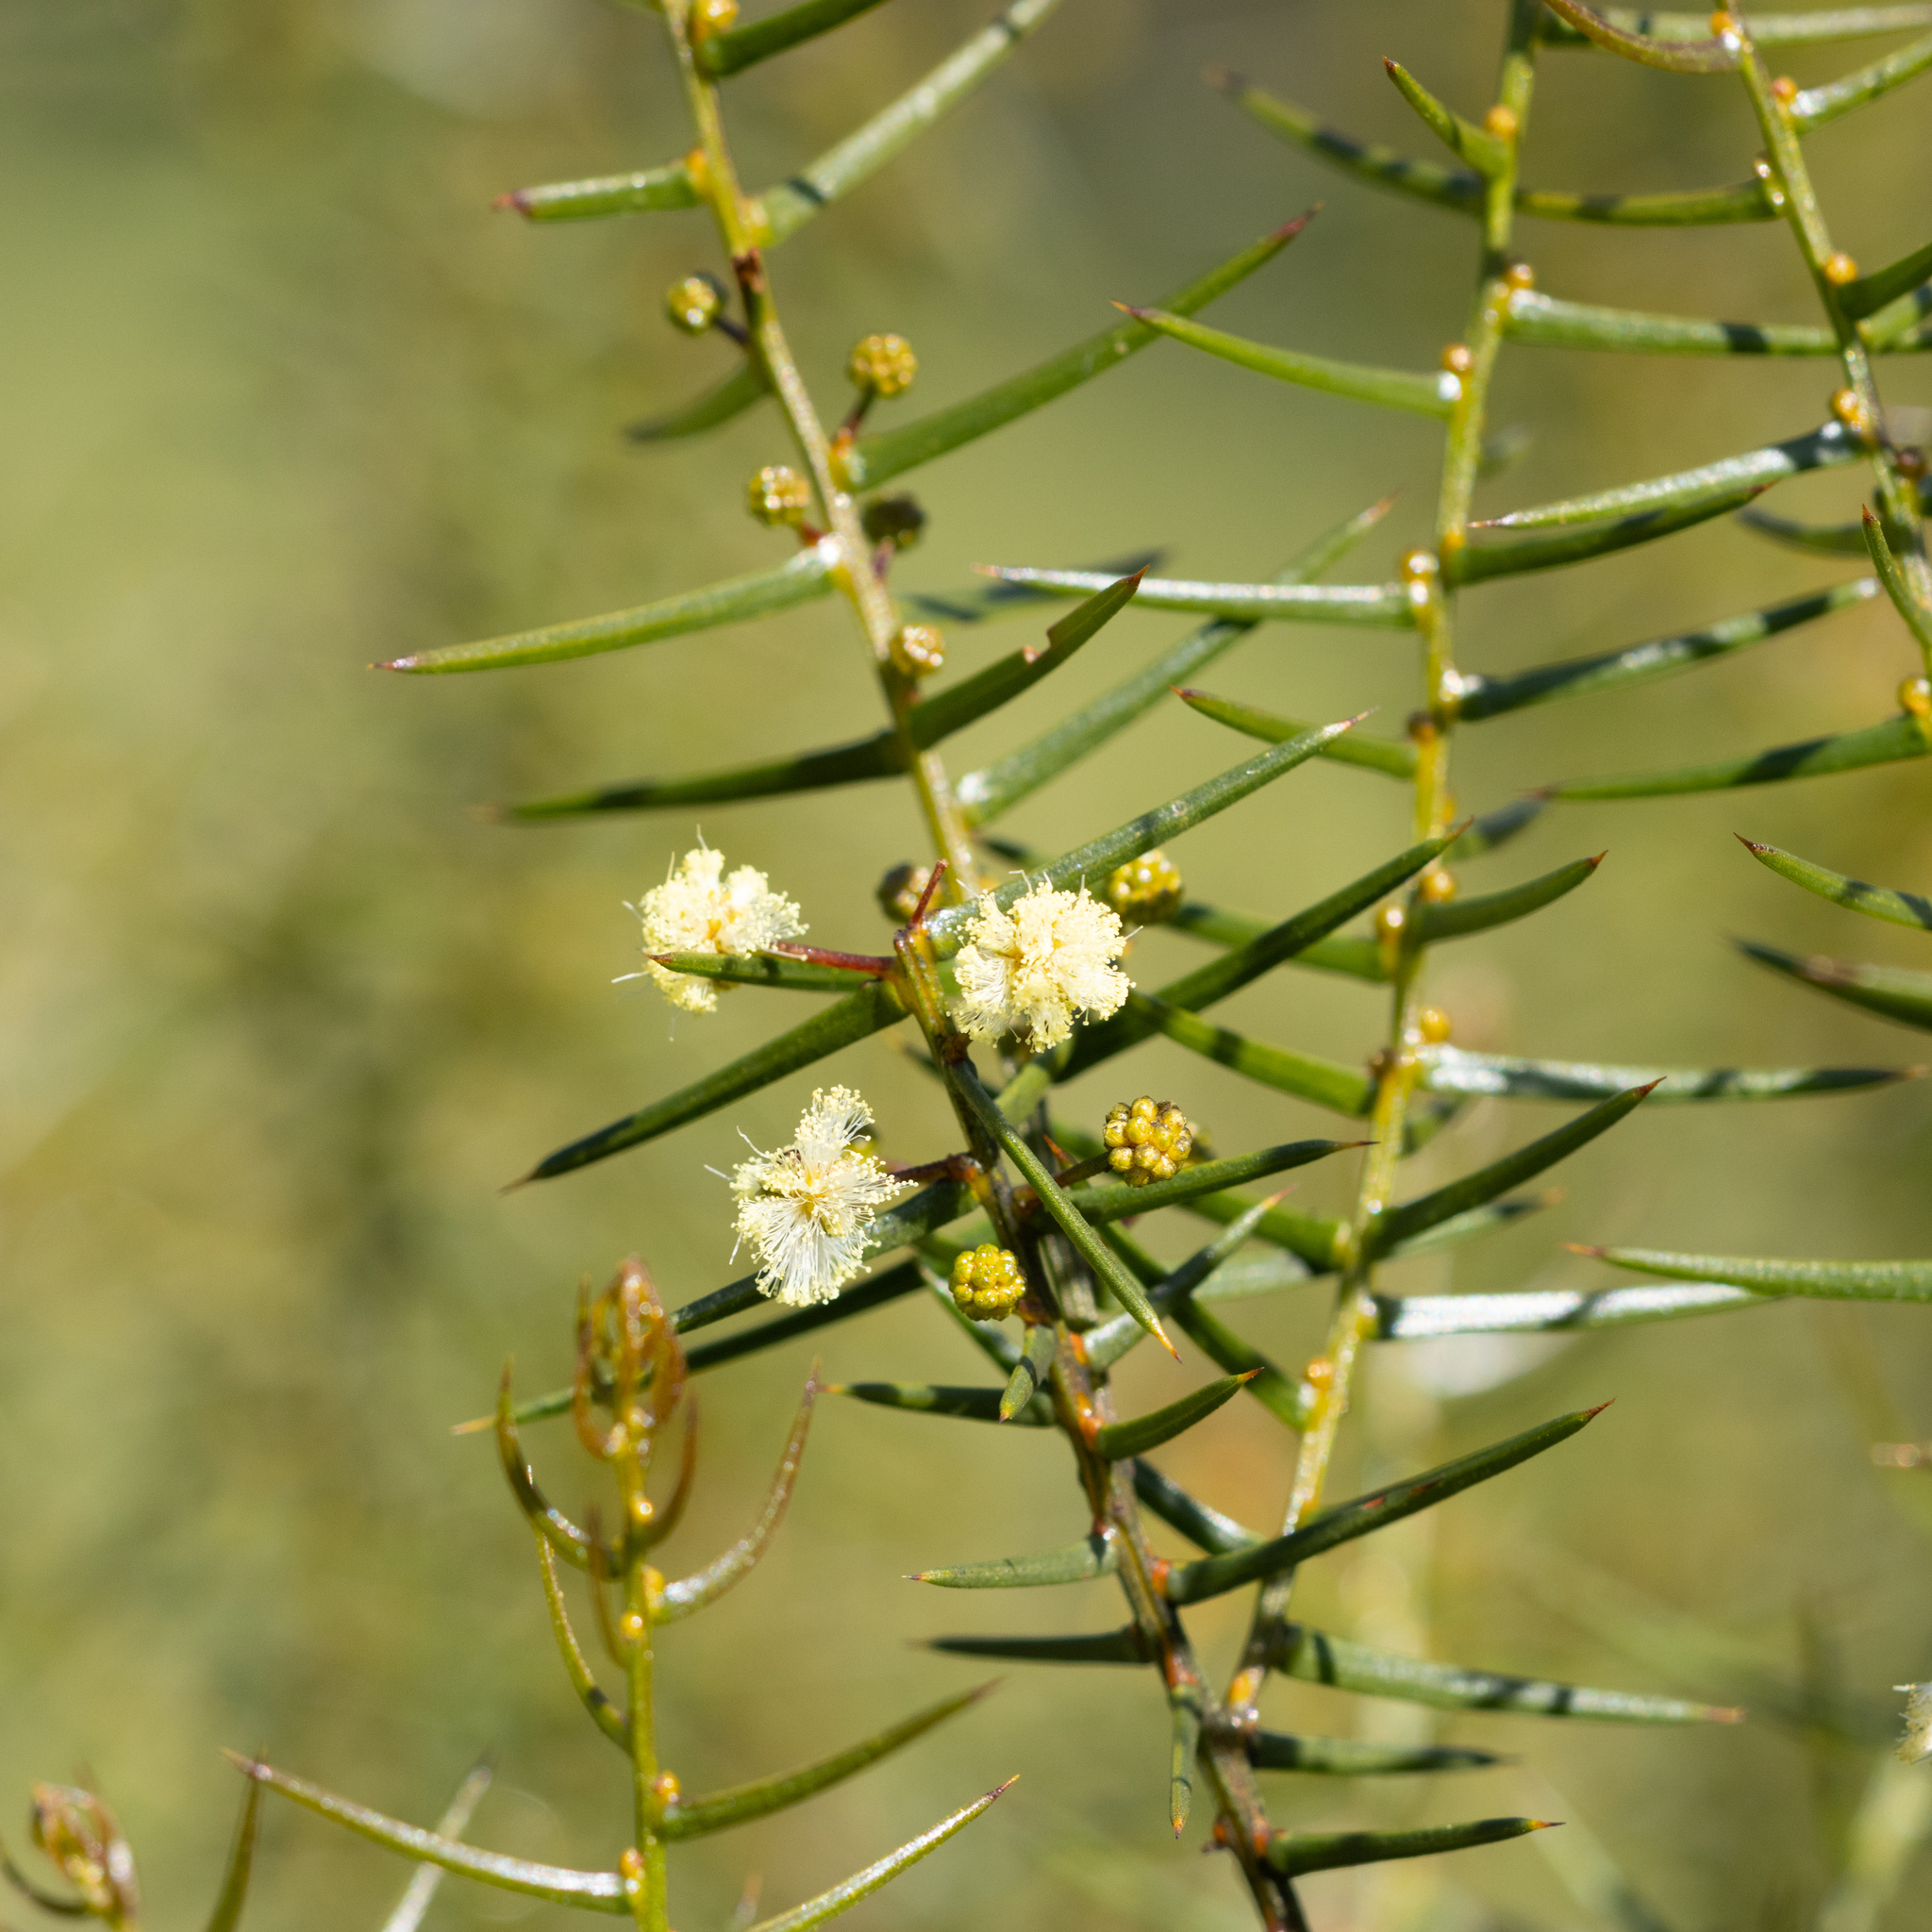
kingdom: Plantae
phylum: Tracheophyta
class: Magnoliopsida
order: Fabales
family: Fabaceae
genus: Acacia
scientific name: Acacia rupicola
